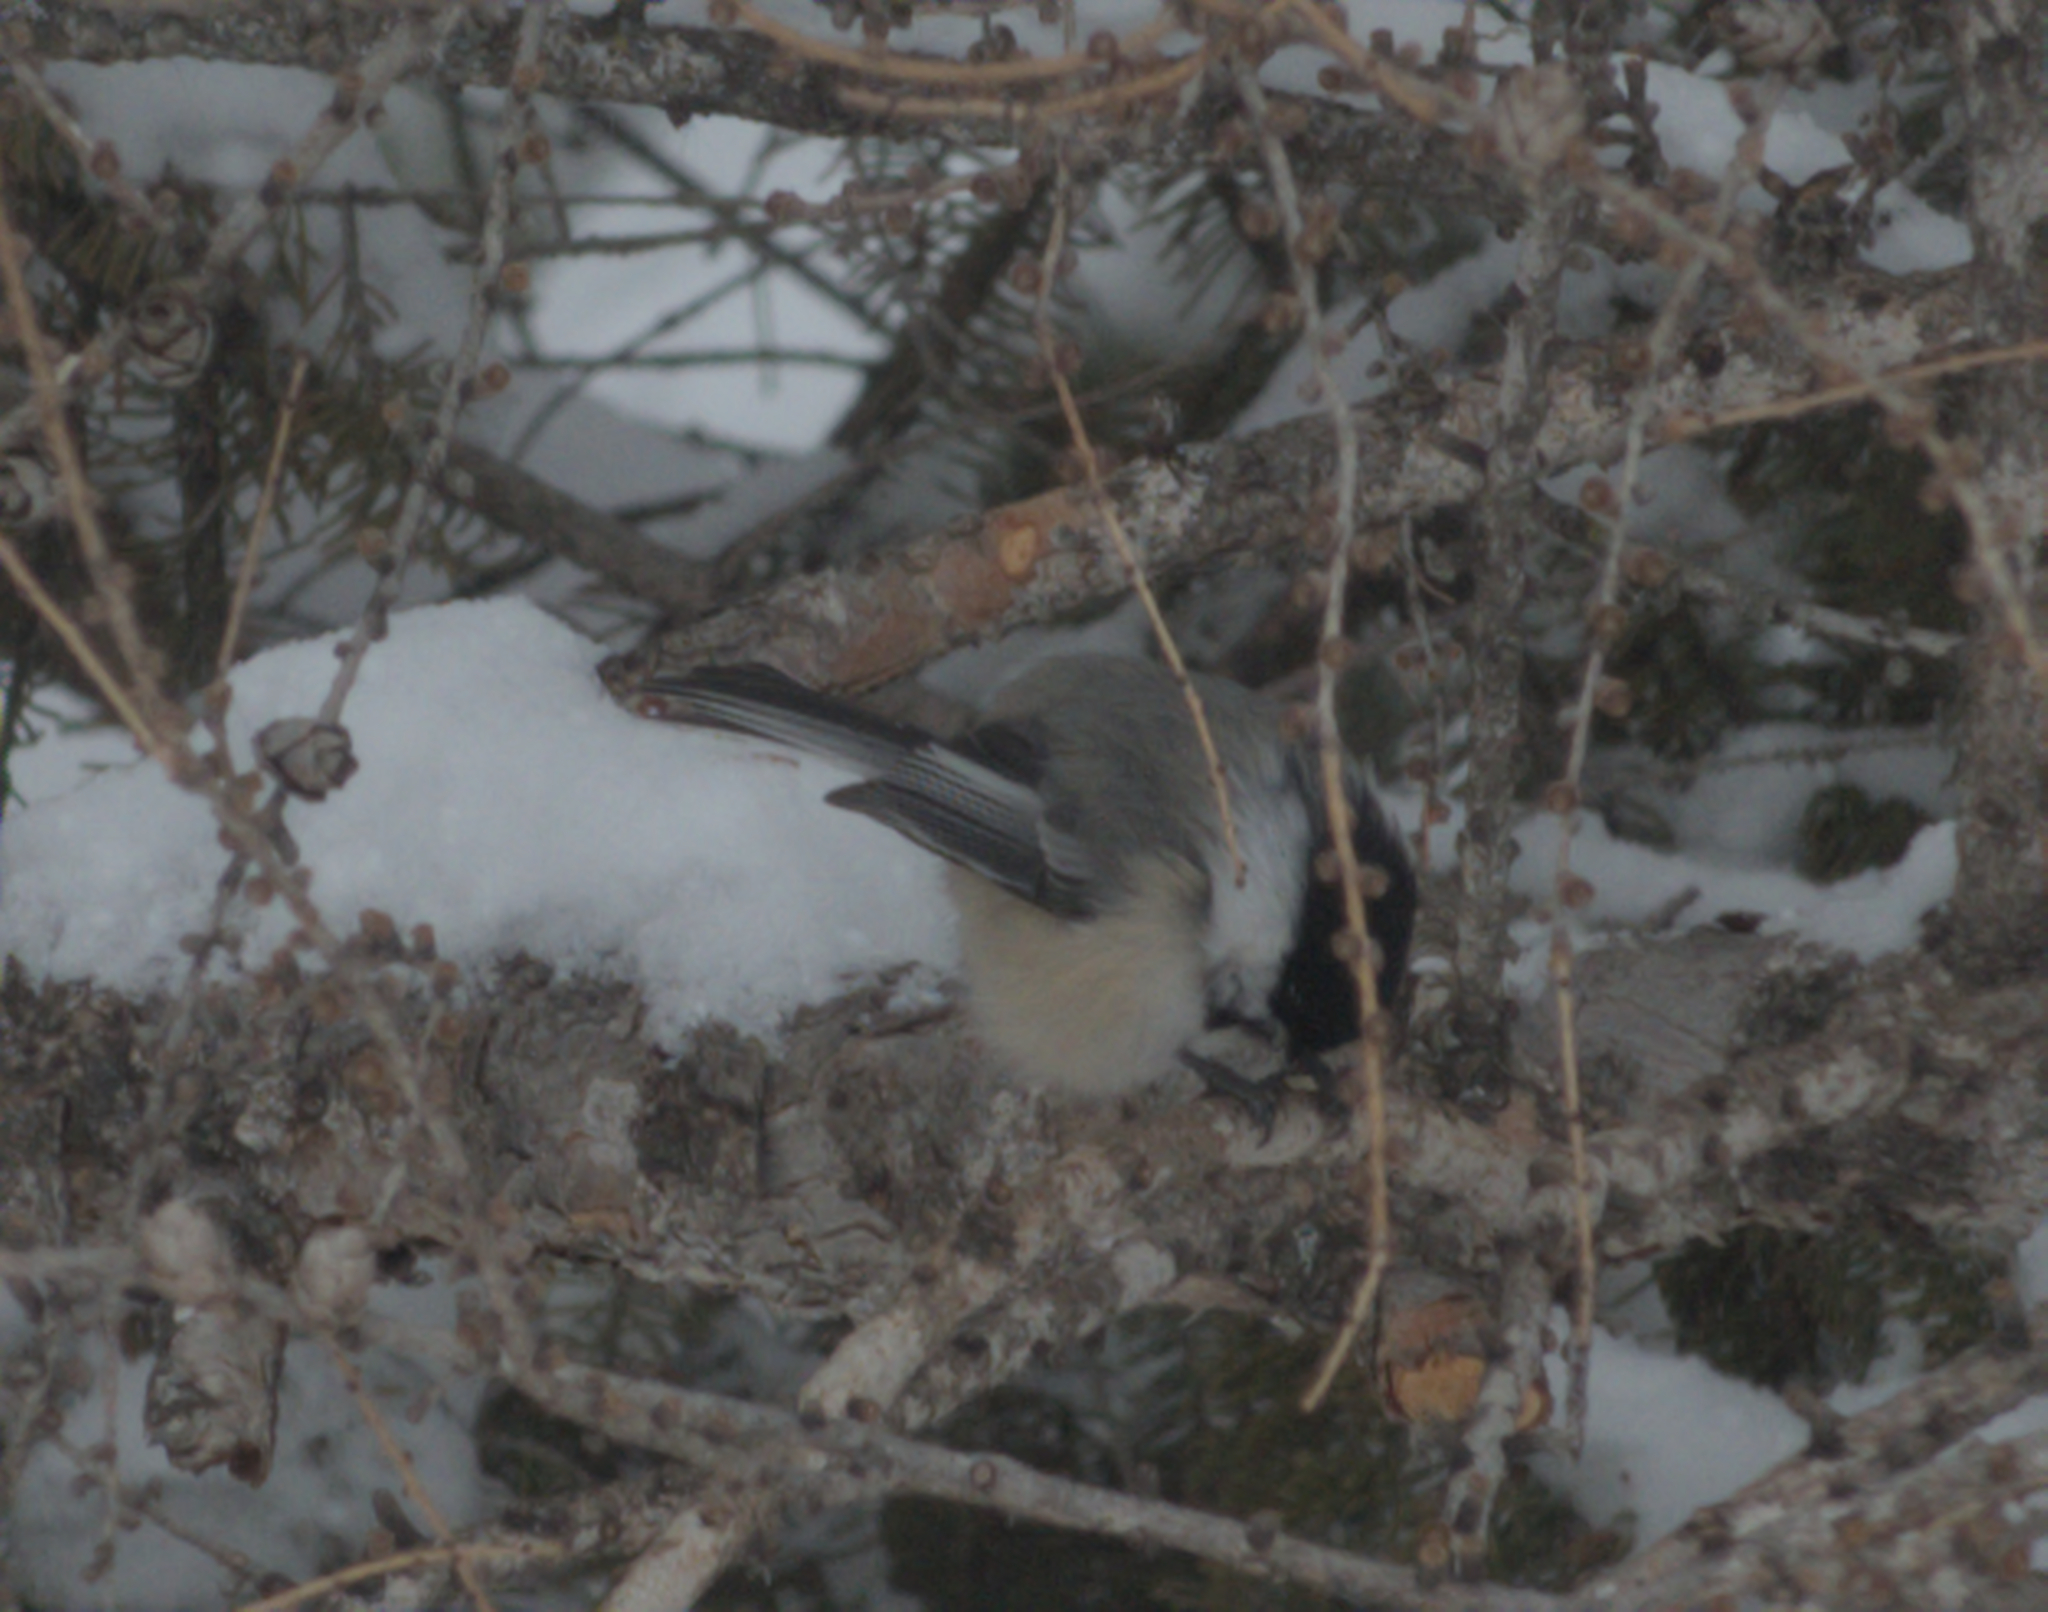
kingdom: Animalia
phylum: Chordata
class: Aves
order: Passeriformes
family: Paridae
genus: Poecile
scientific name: Poecile atricapillus
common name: Black-capped chickadee
